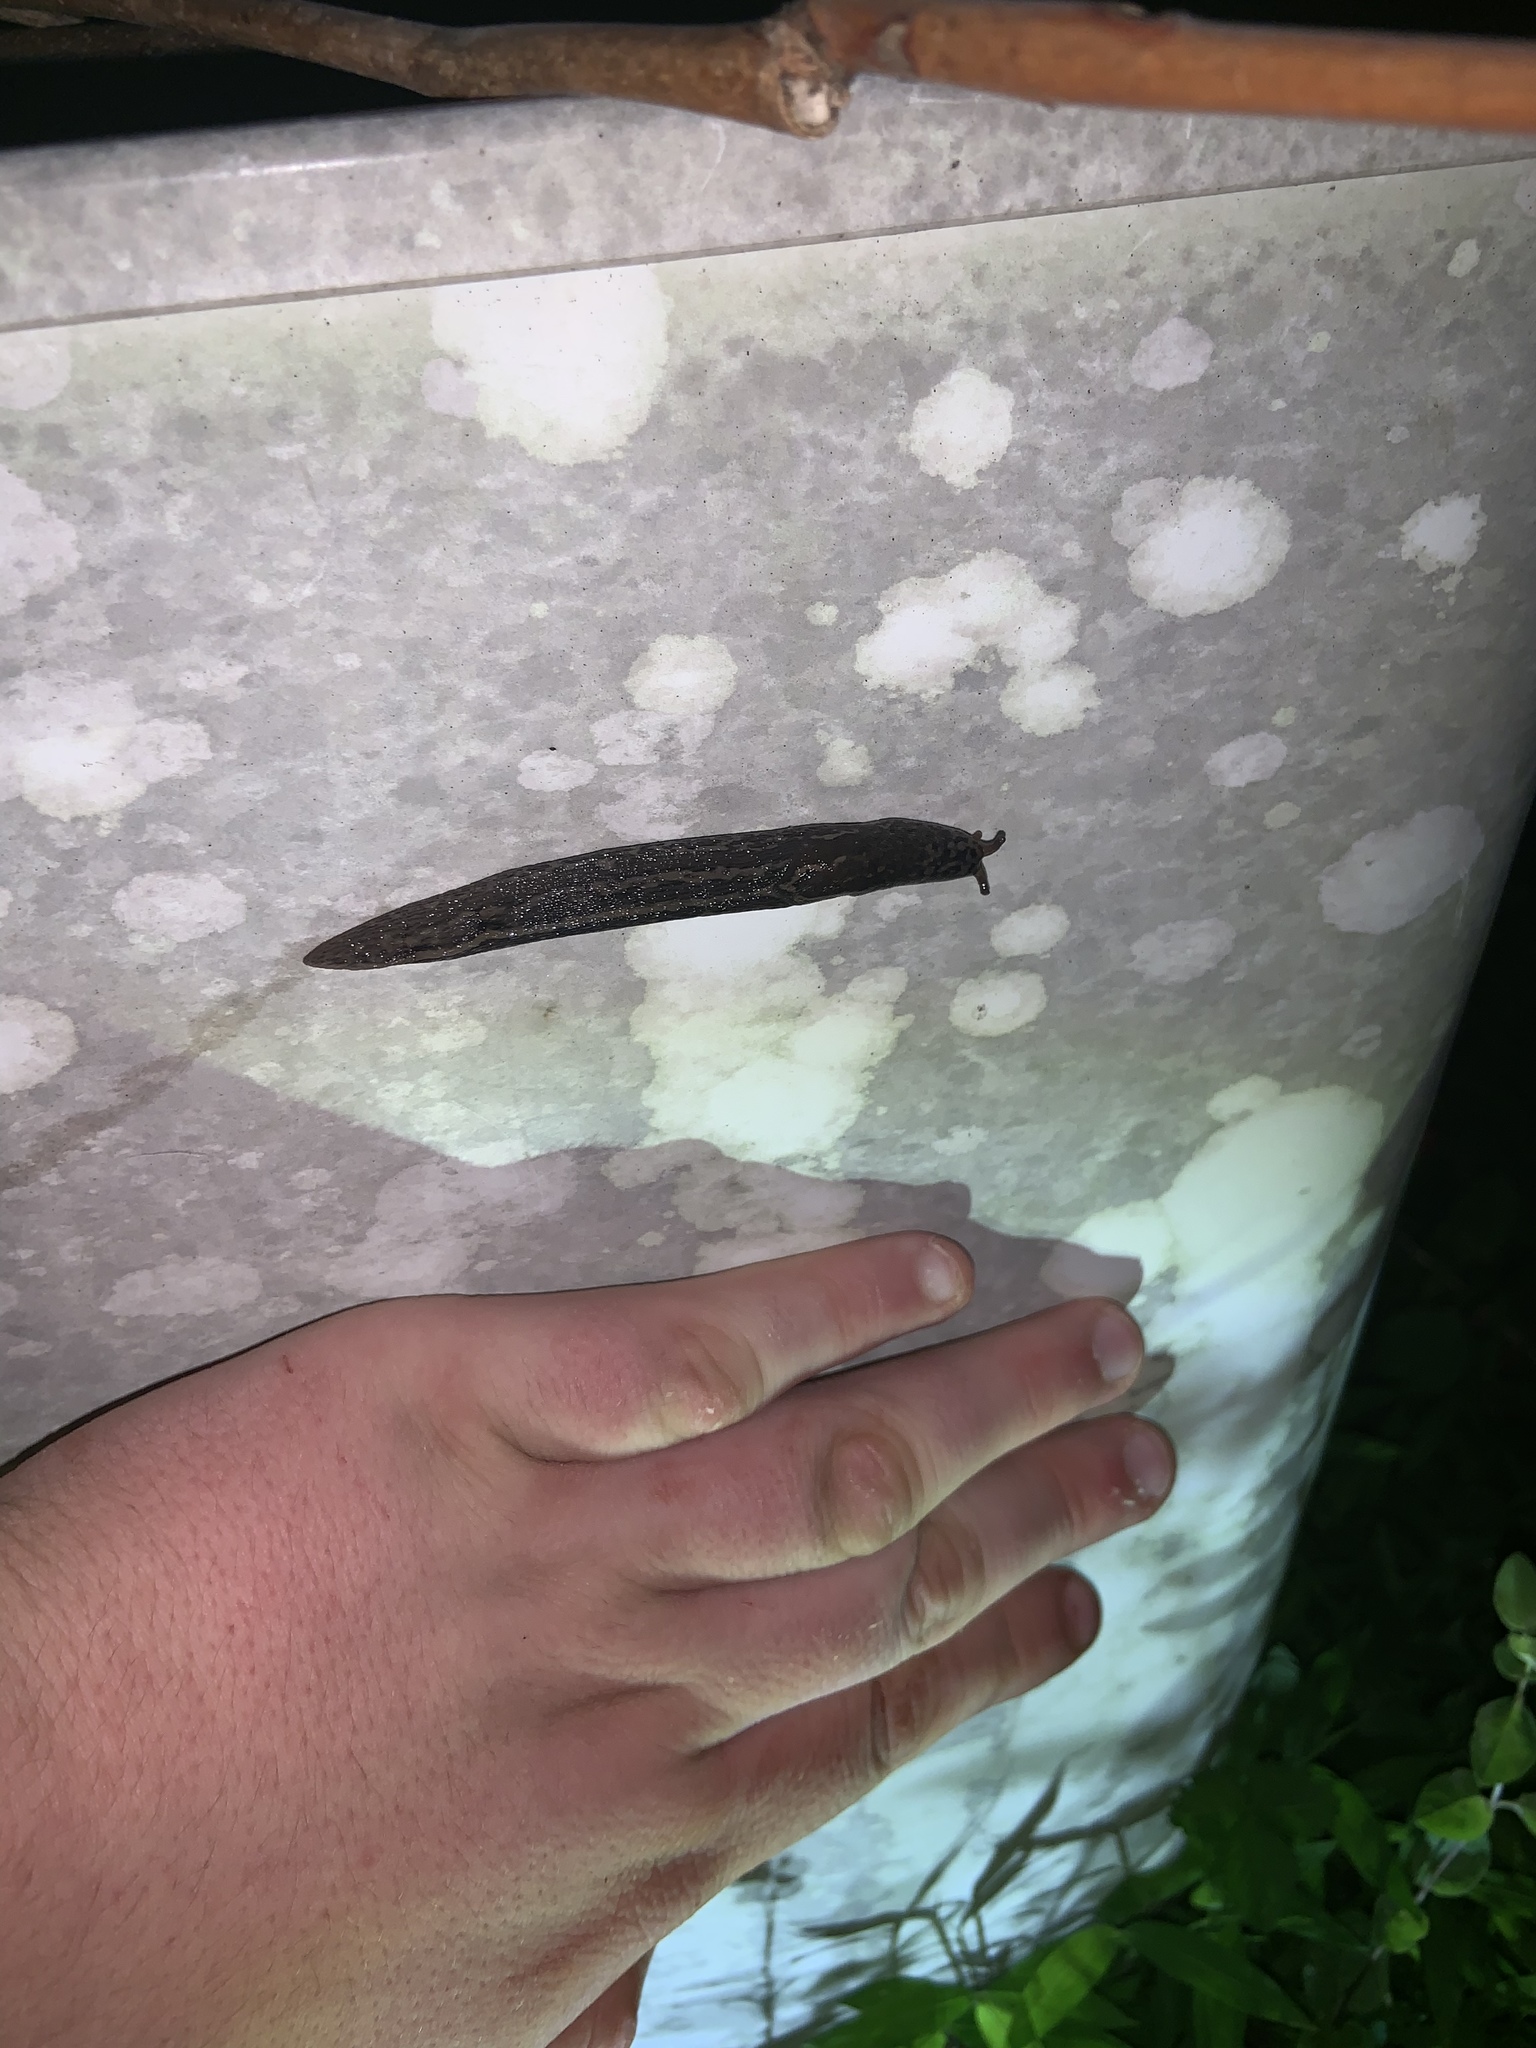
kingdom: Animalia
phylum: Mollusca
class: Gastropoda
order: Stylommatophora
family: Limacidae
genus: Limax
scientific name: Limax maximus
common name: Great grey slug
